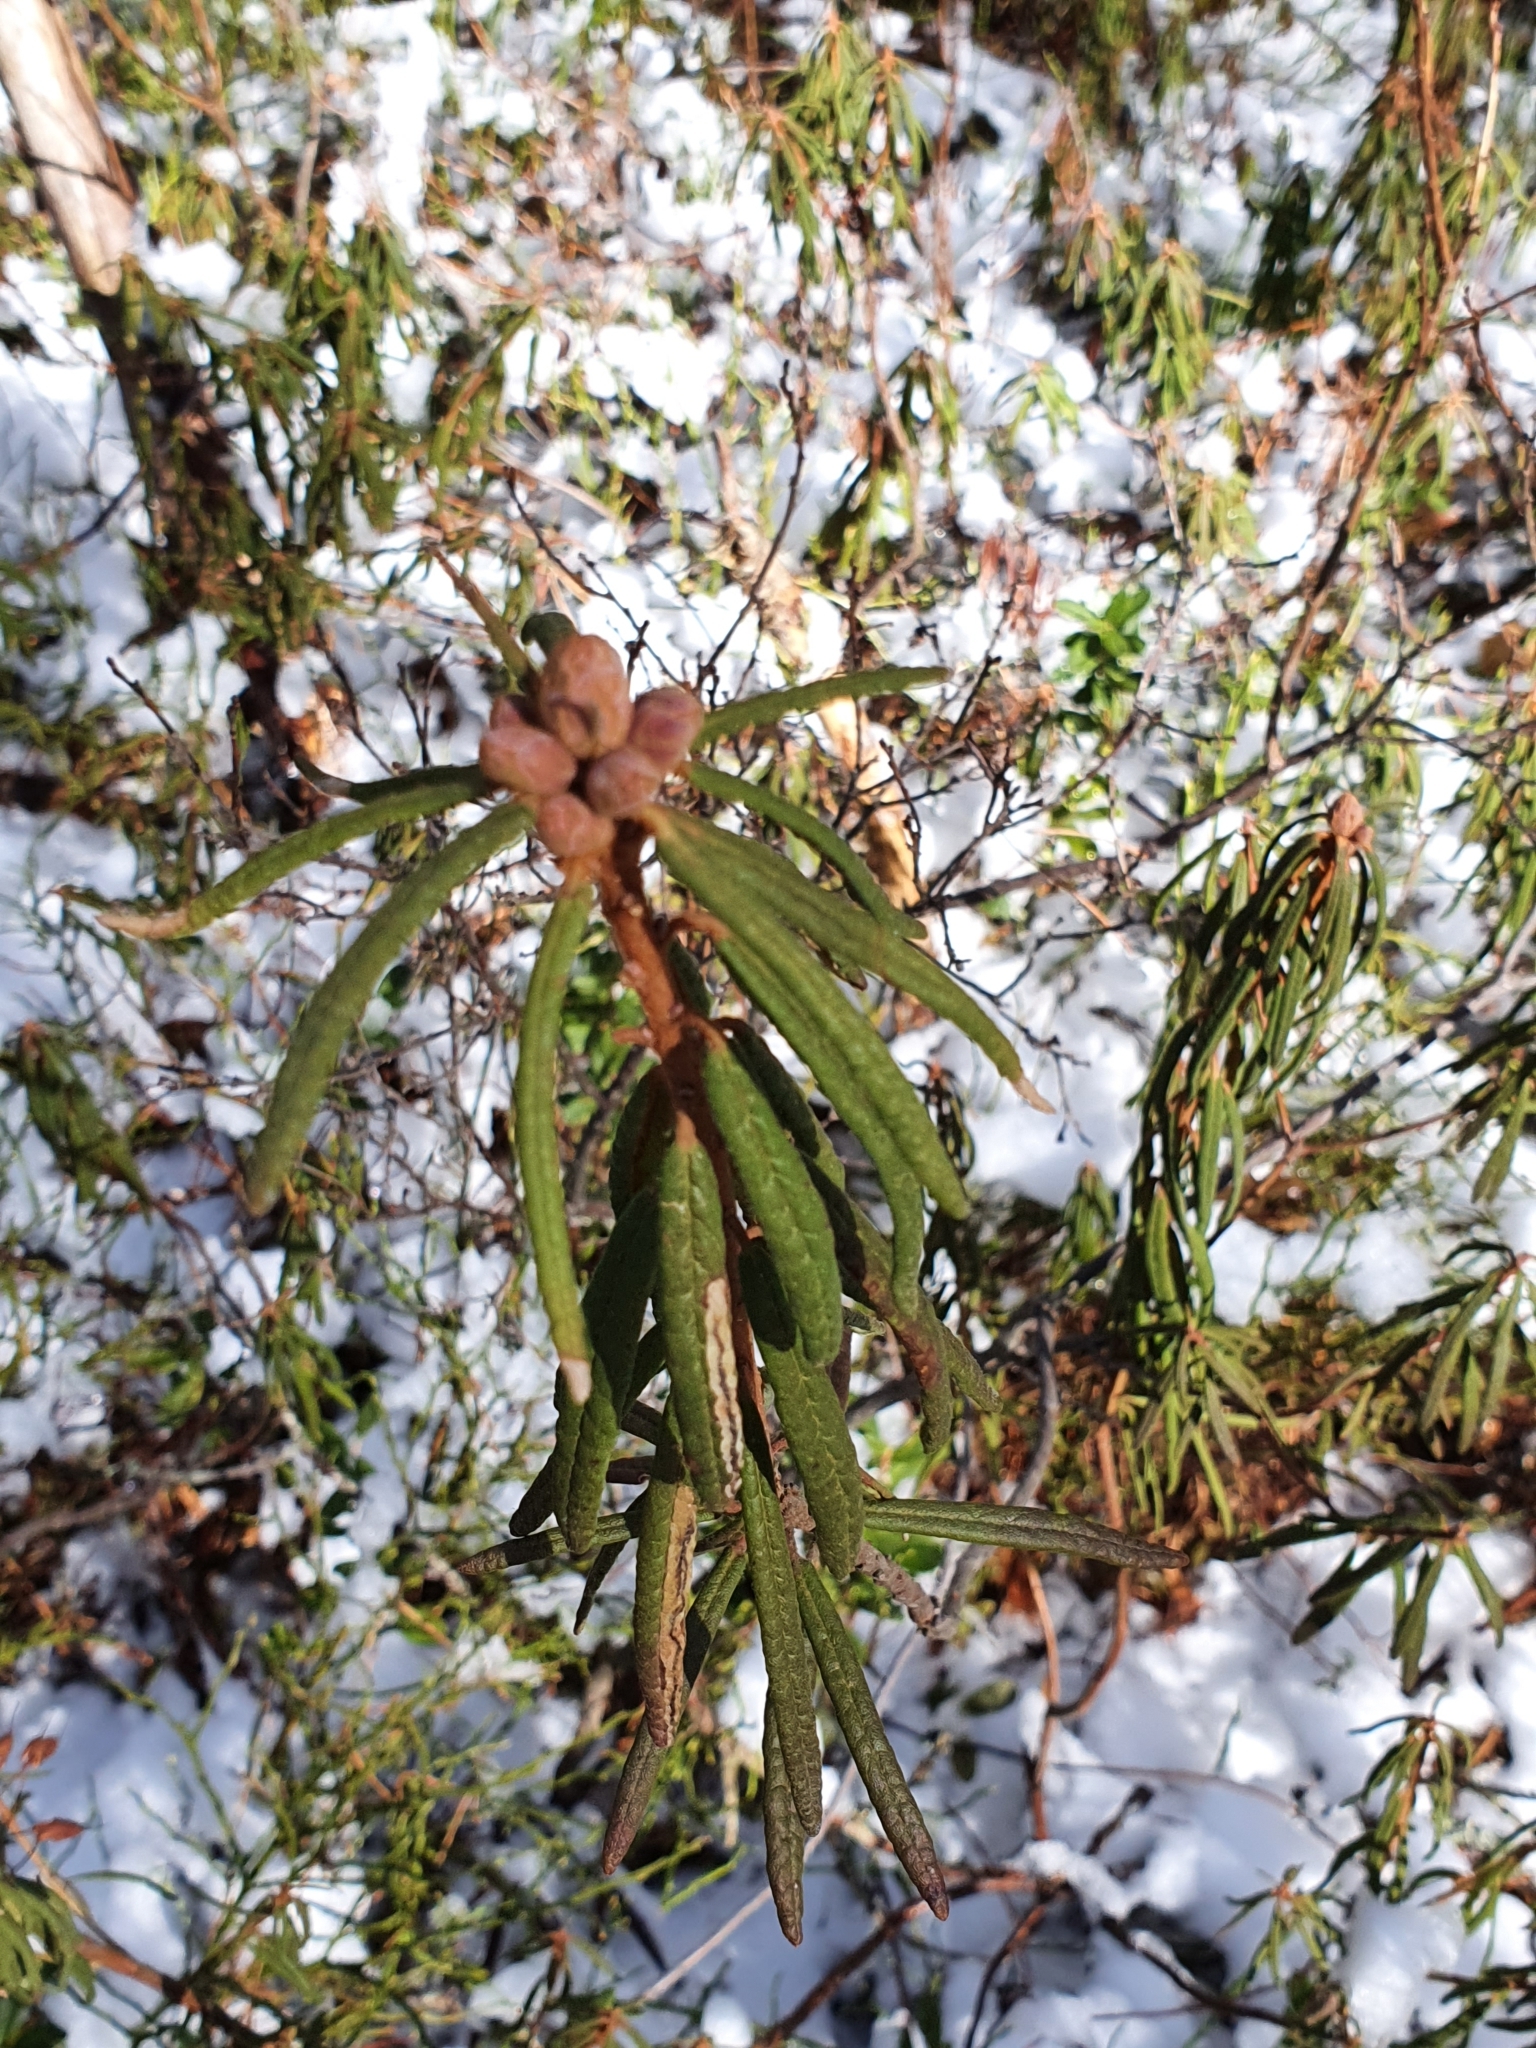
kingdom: Plantae
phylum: Tracheophyta
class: Magnoliopsida
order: Ericales
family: Ericaceae
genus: Rhododendron
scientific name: Rhododendron tomentosum
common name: Marsh labrador tea
